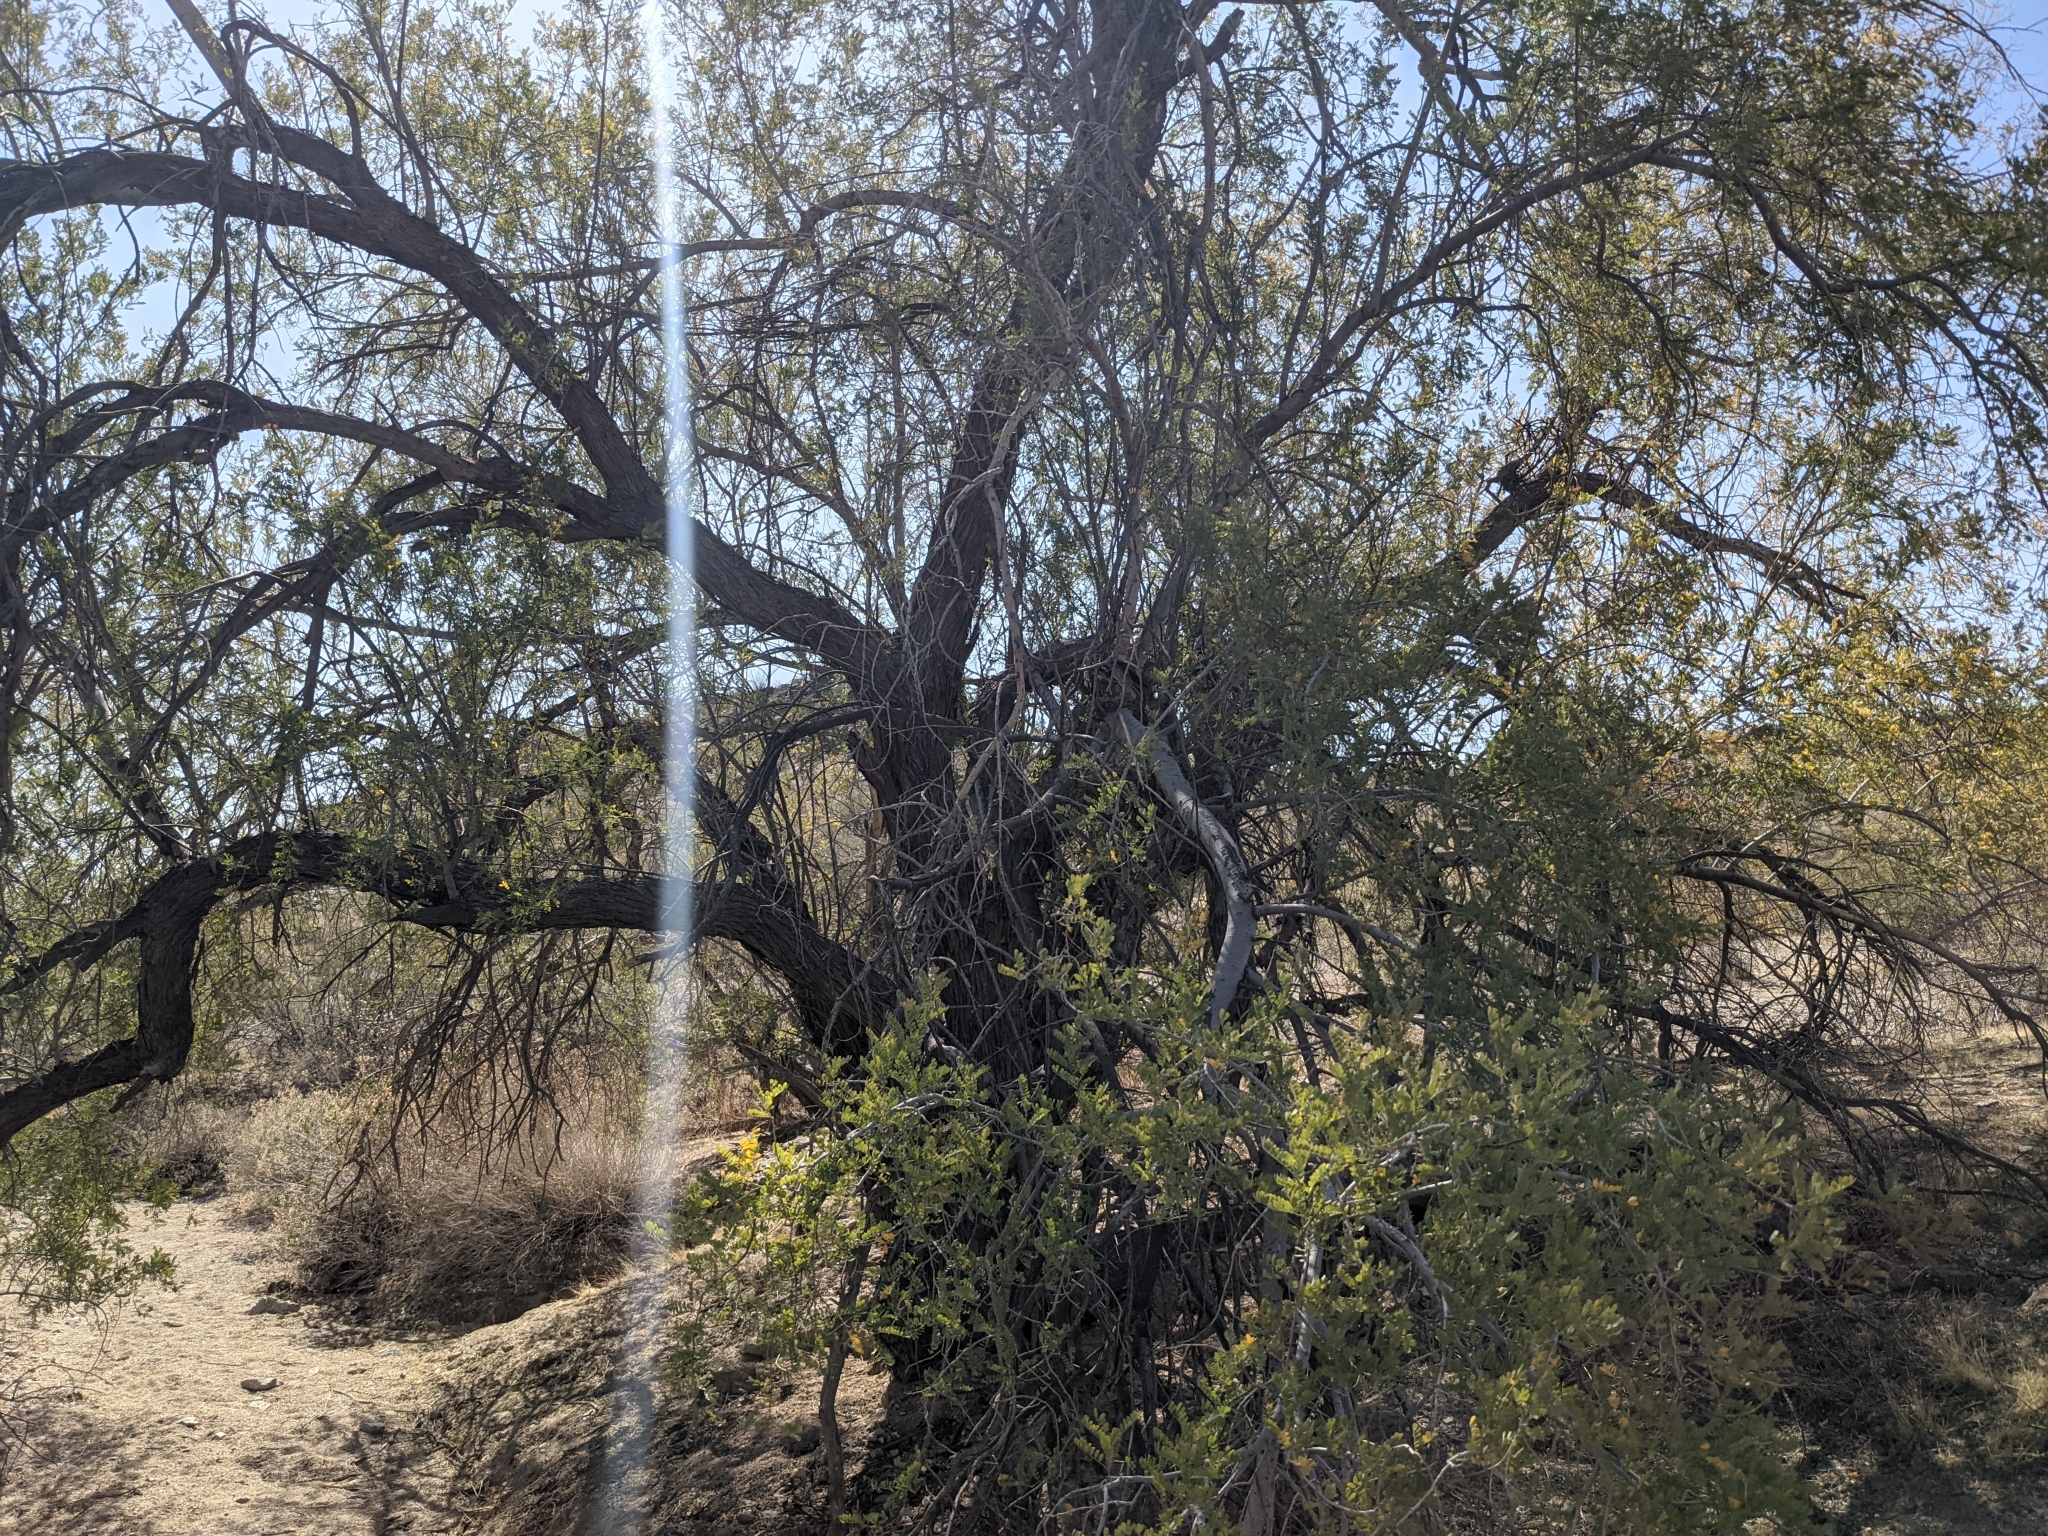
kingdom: Plantae
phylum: Tracheophyta
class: Magnoliopsida
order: Fabales
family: Fabaceae
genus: Olneya
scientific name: Olneya tesota
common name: Desert ironwood
